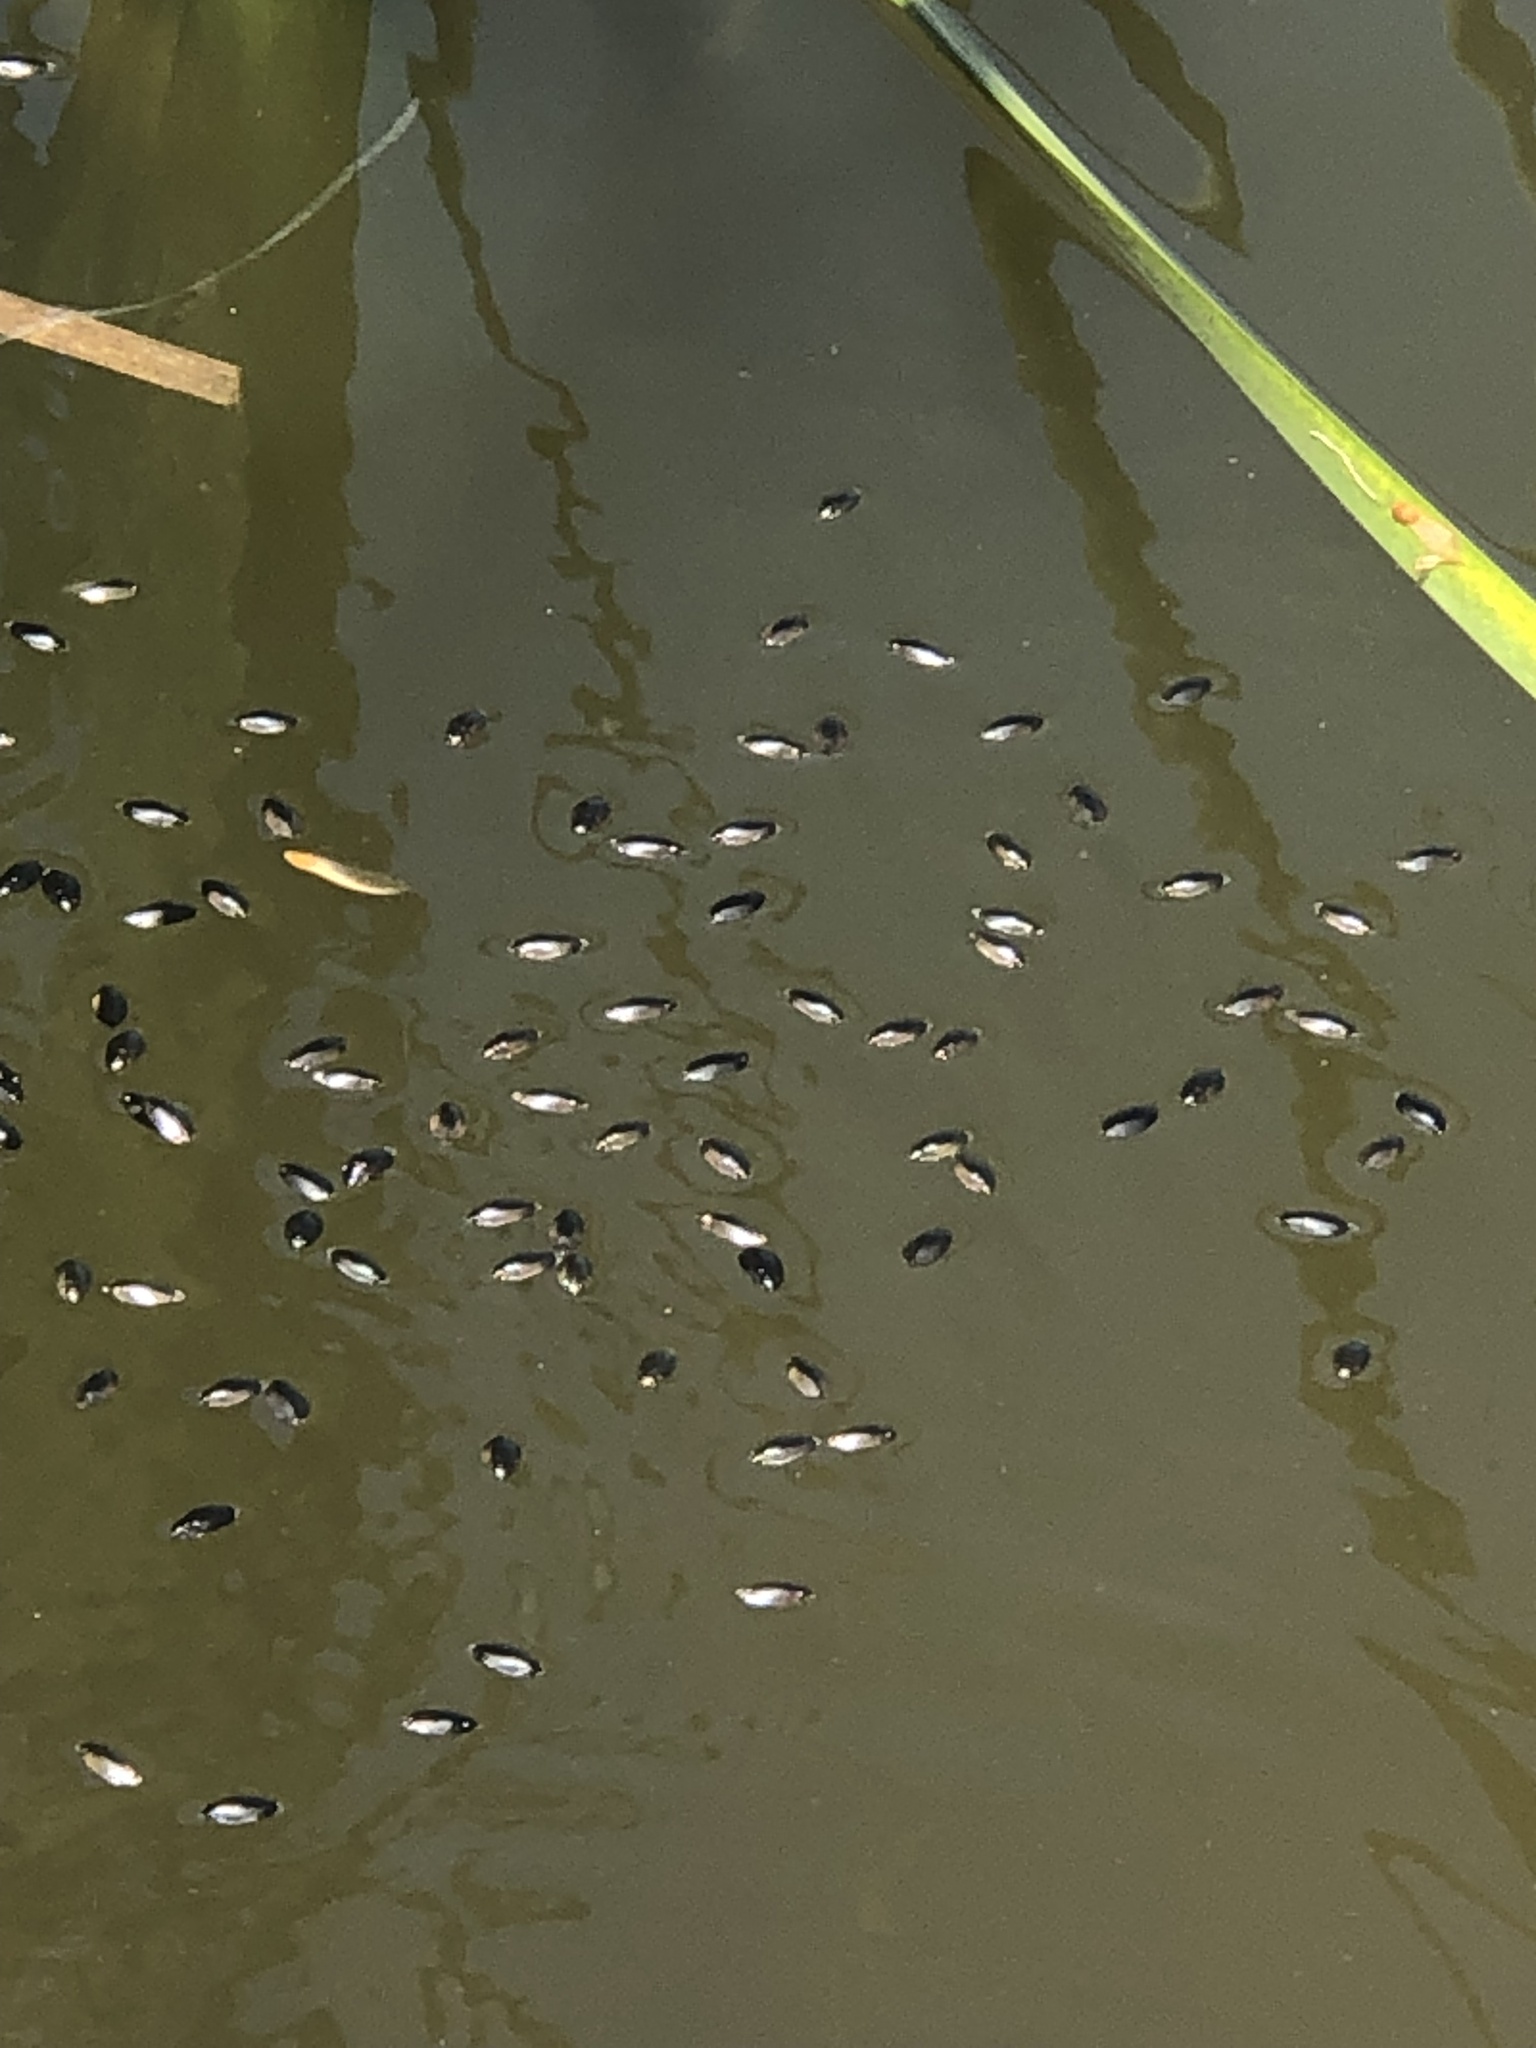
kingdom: Animalia
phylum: Arthropoda
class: Insecta
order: Coleoptera
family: Gyrinidae
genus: Dineutus
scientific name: Dineutus
